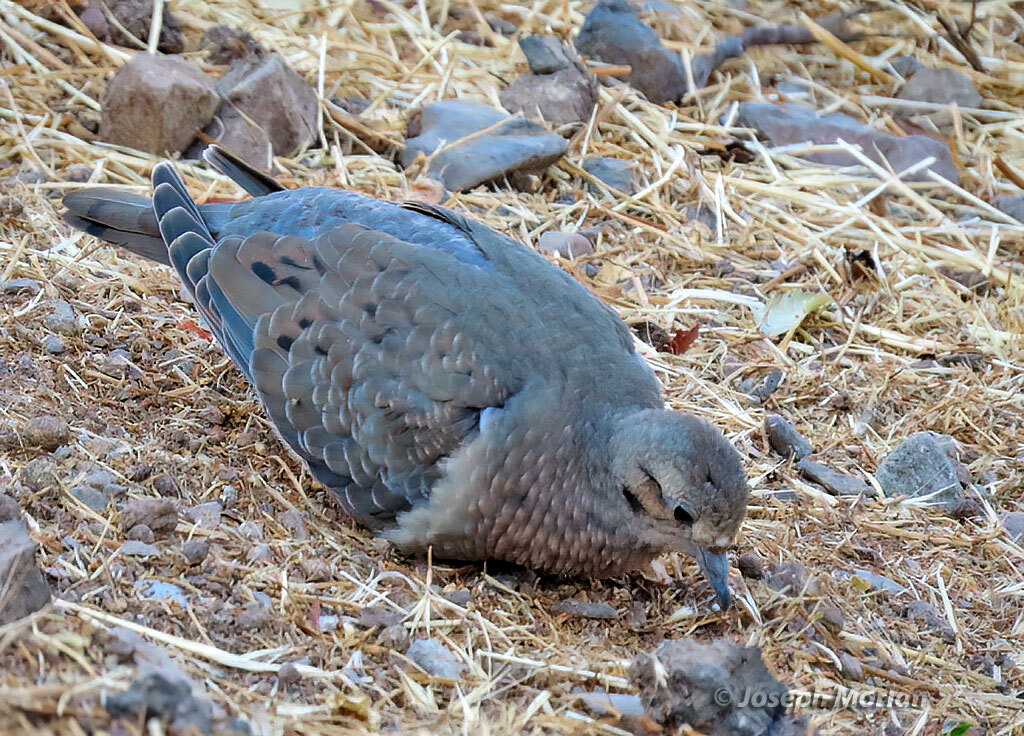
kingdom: Animalia
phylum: Chordata
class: Aves
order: Columbiformes
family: Columbidae
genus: Zenaida
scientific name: Zenaida auriculata
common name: Eared dove
